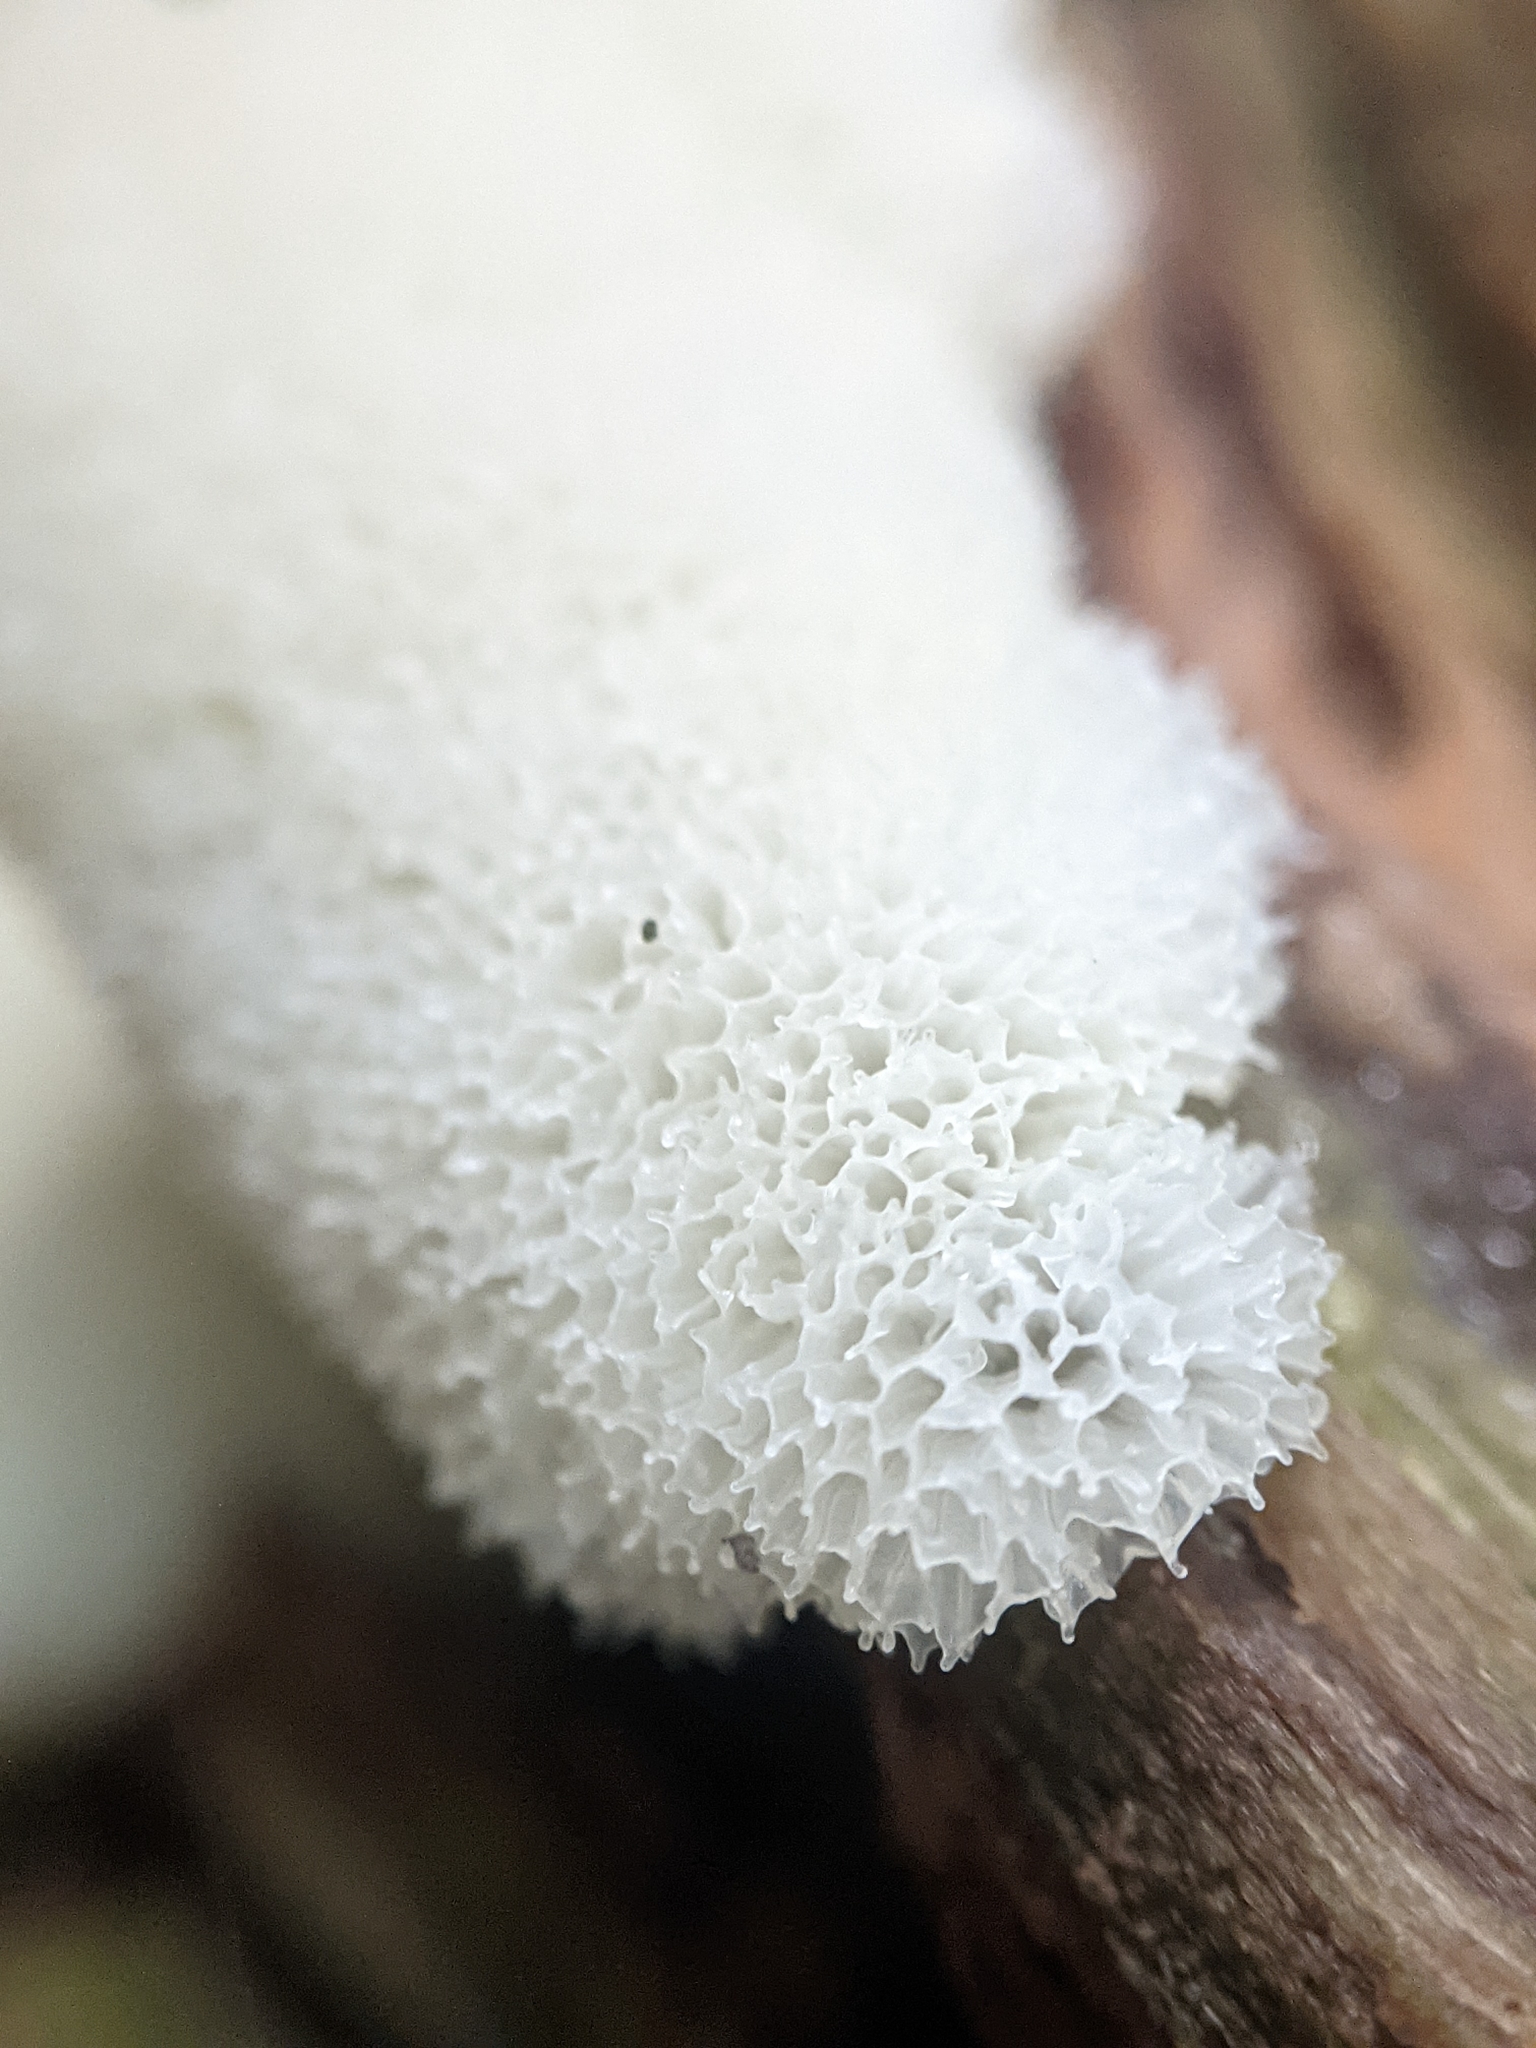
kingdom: Protozoa
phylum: Mycetozoa
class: Protosteliomycetes
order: Ceratiomyxales
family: Ceratiomyxaceae
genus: Ceratiomyxa
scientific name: Ceratiomyxa fruticulosa
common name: Honeycomb coral slime mold
